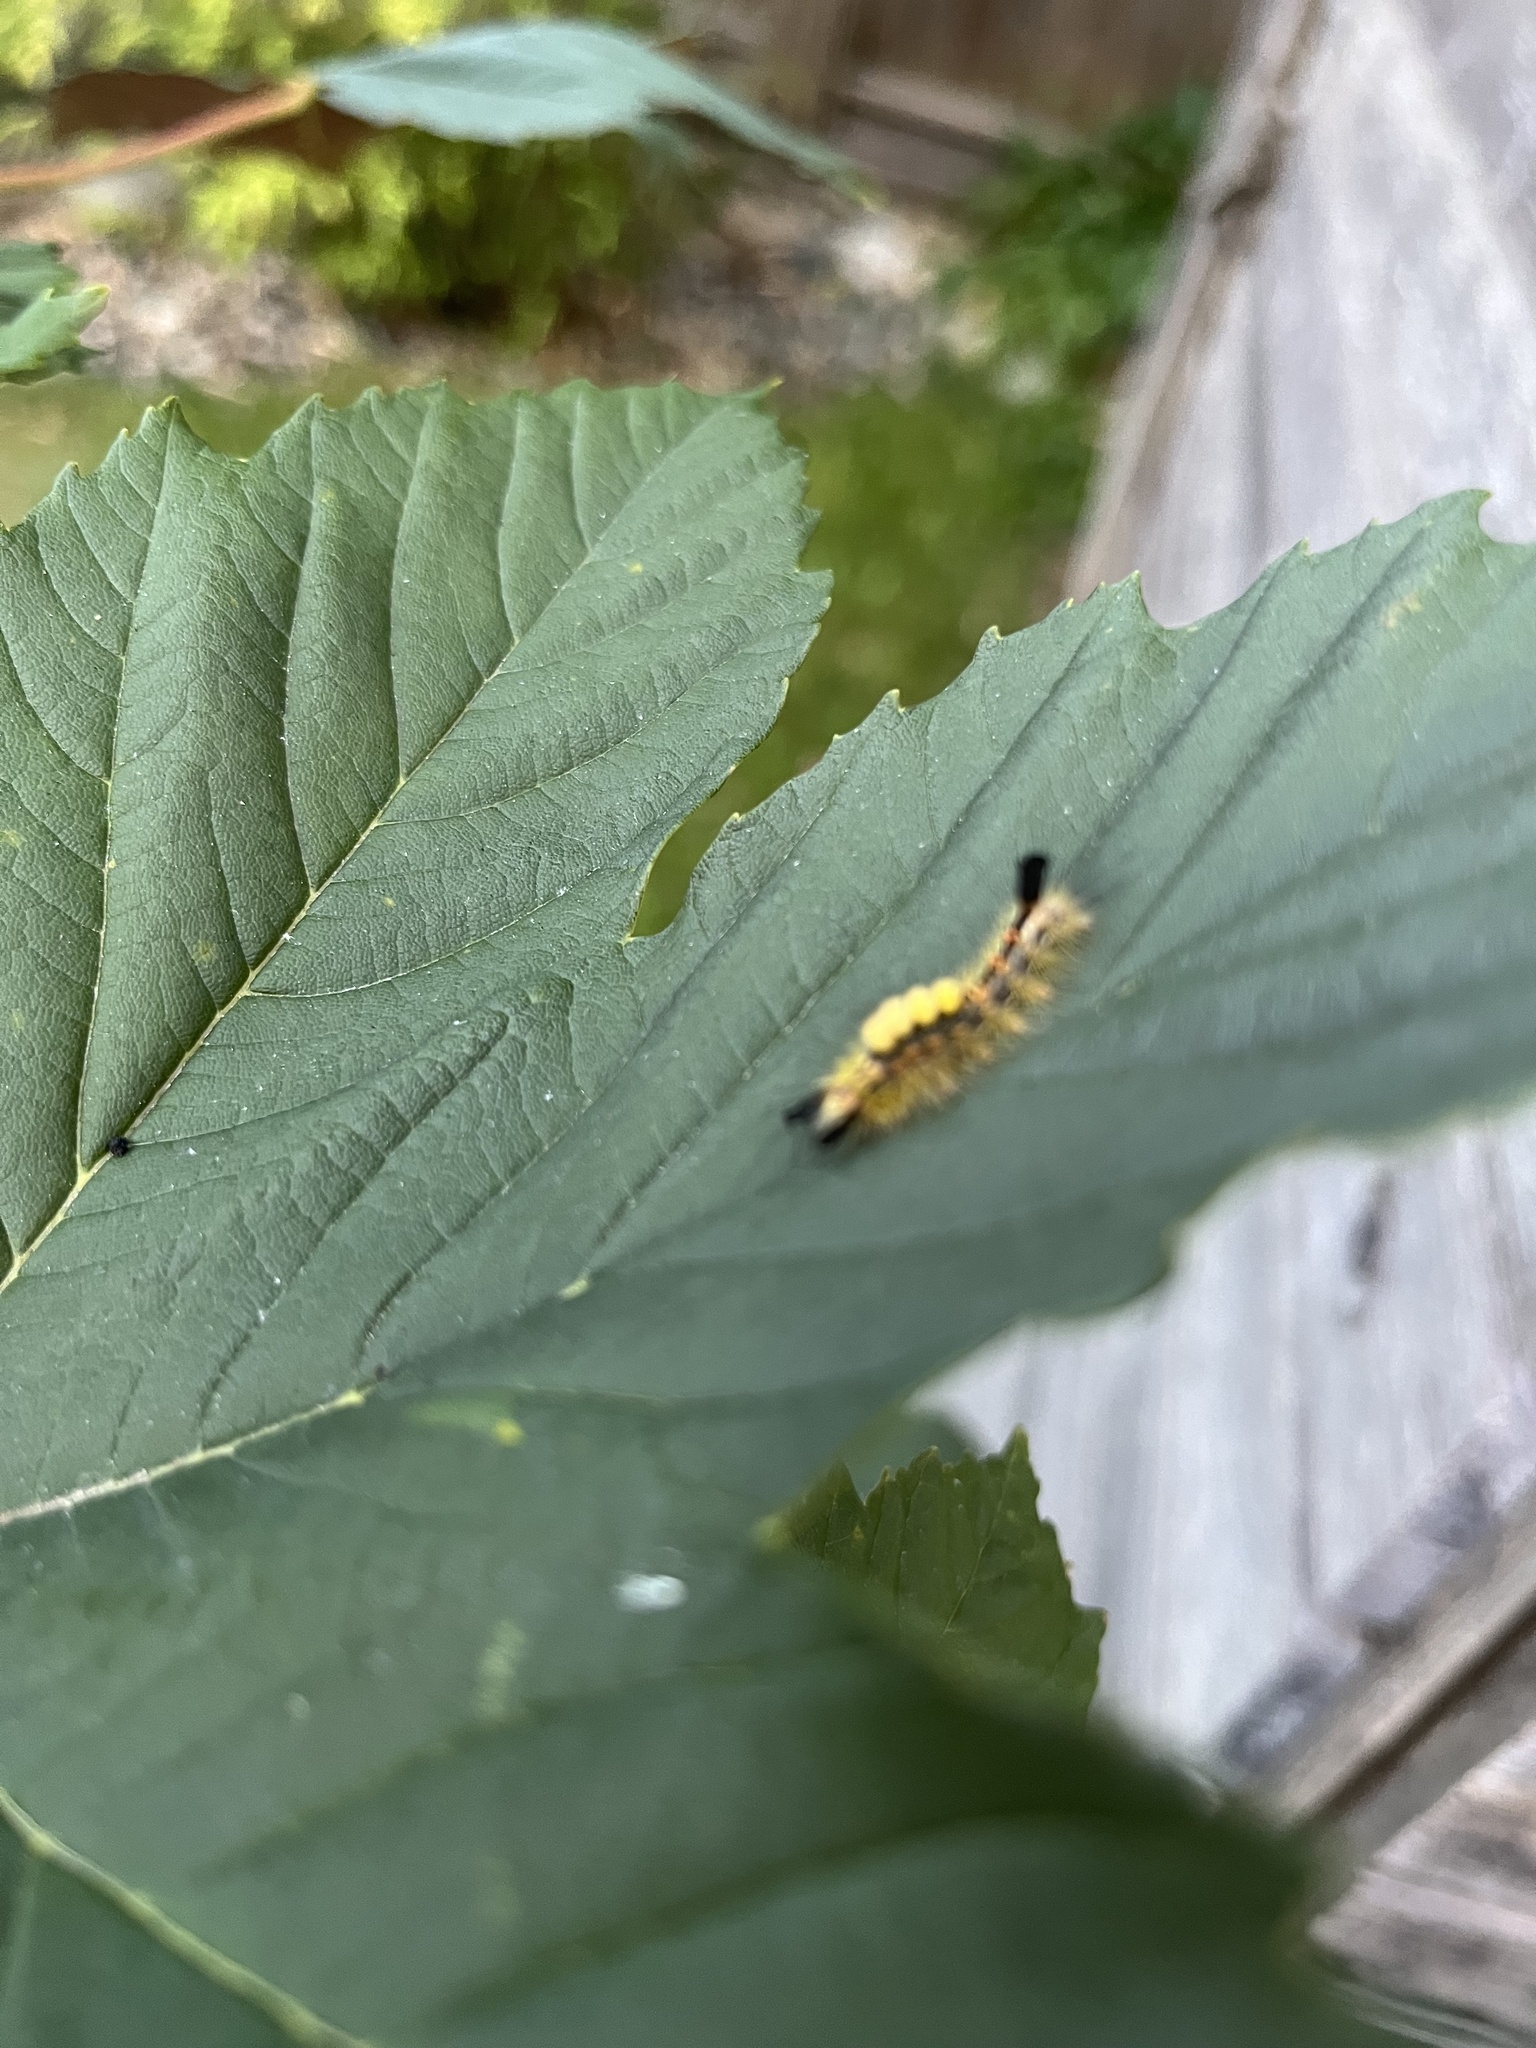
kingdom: Animalia
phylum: Arthropoda
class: Insecta
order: Lepidoptera
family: Erebidae
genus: Orgyia
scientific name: Orgyia antiqua
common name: Vapourer
